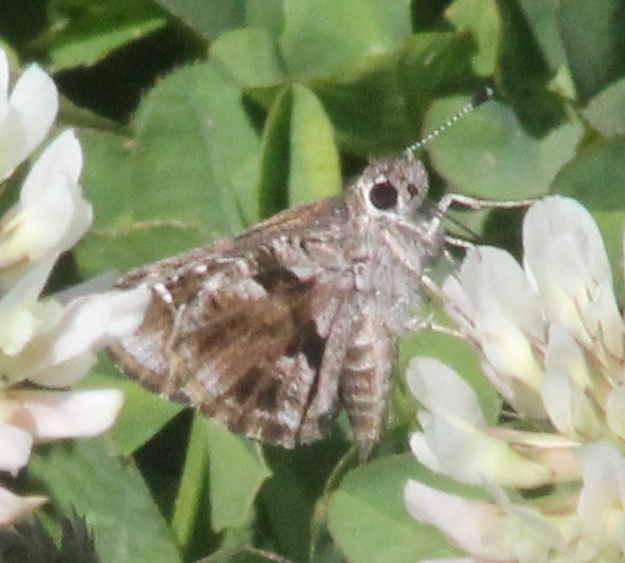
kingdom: Animalia
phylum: Arthropoda
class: Insecta
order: Lepidoptera
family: Hesperiidae
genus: Mastor
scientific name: Mastor nysa
